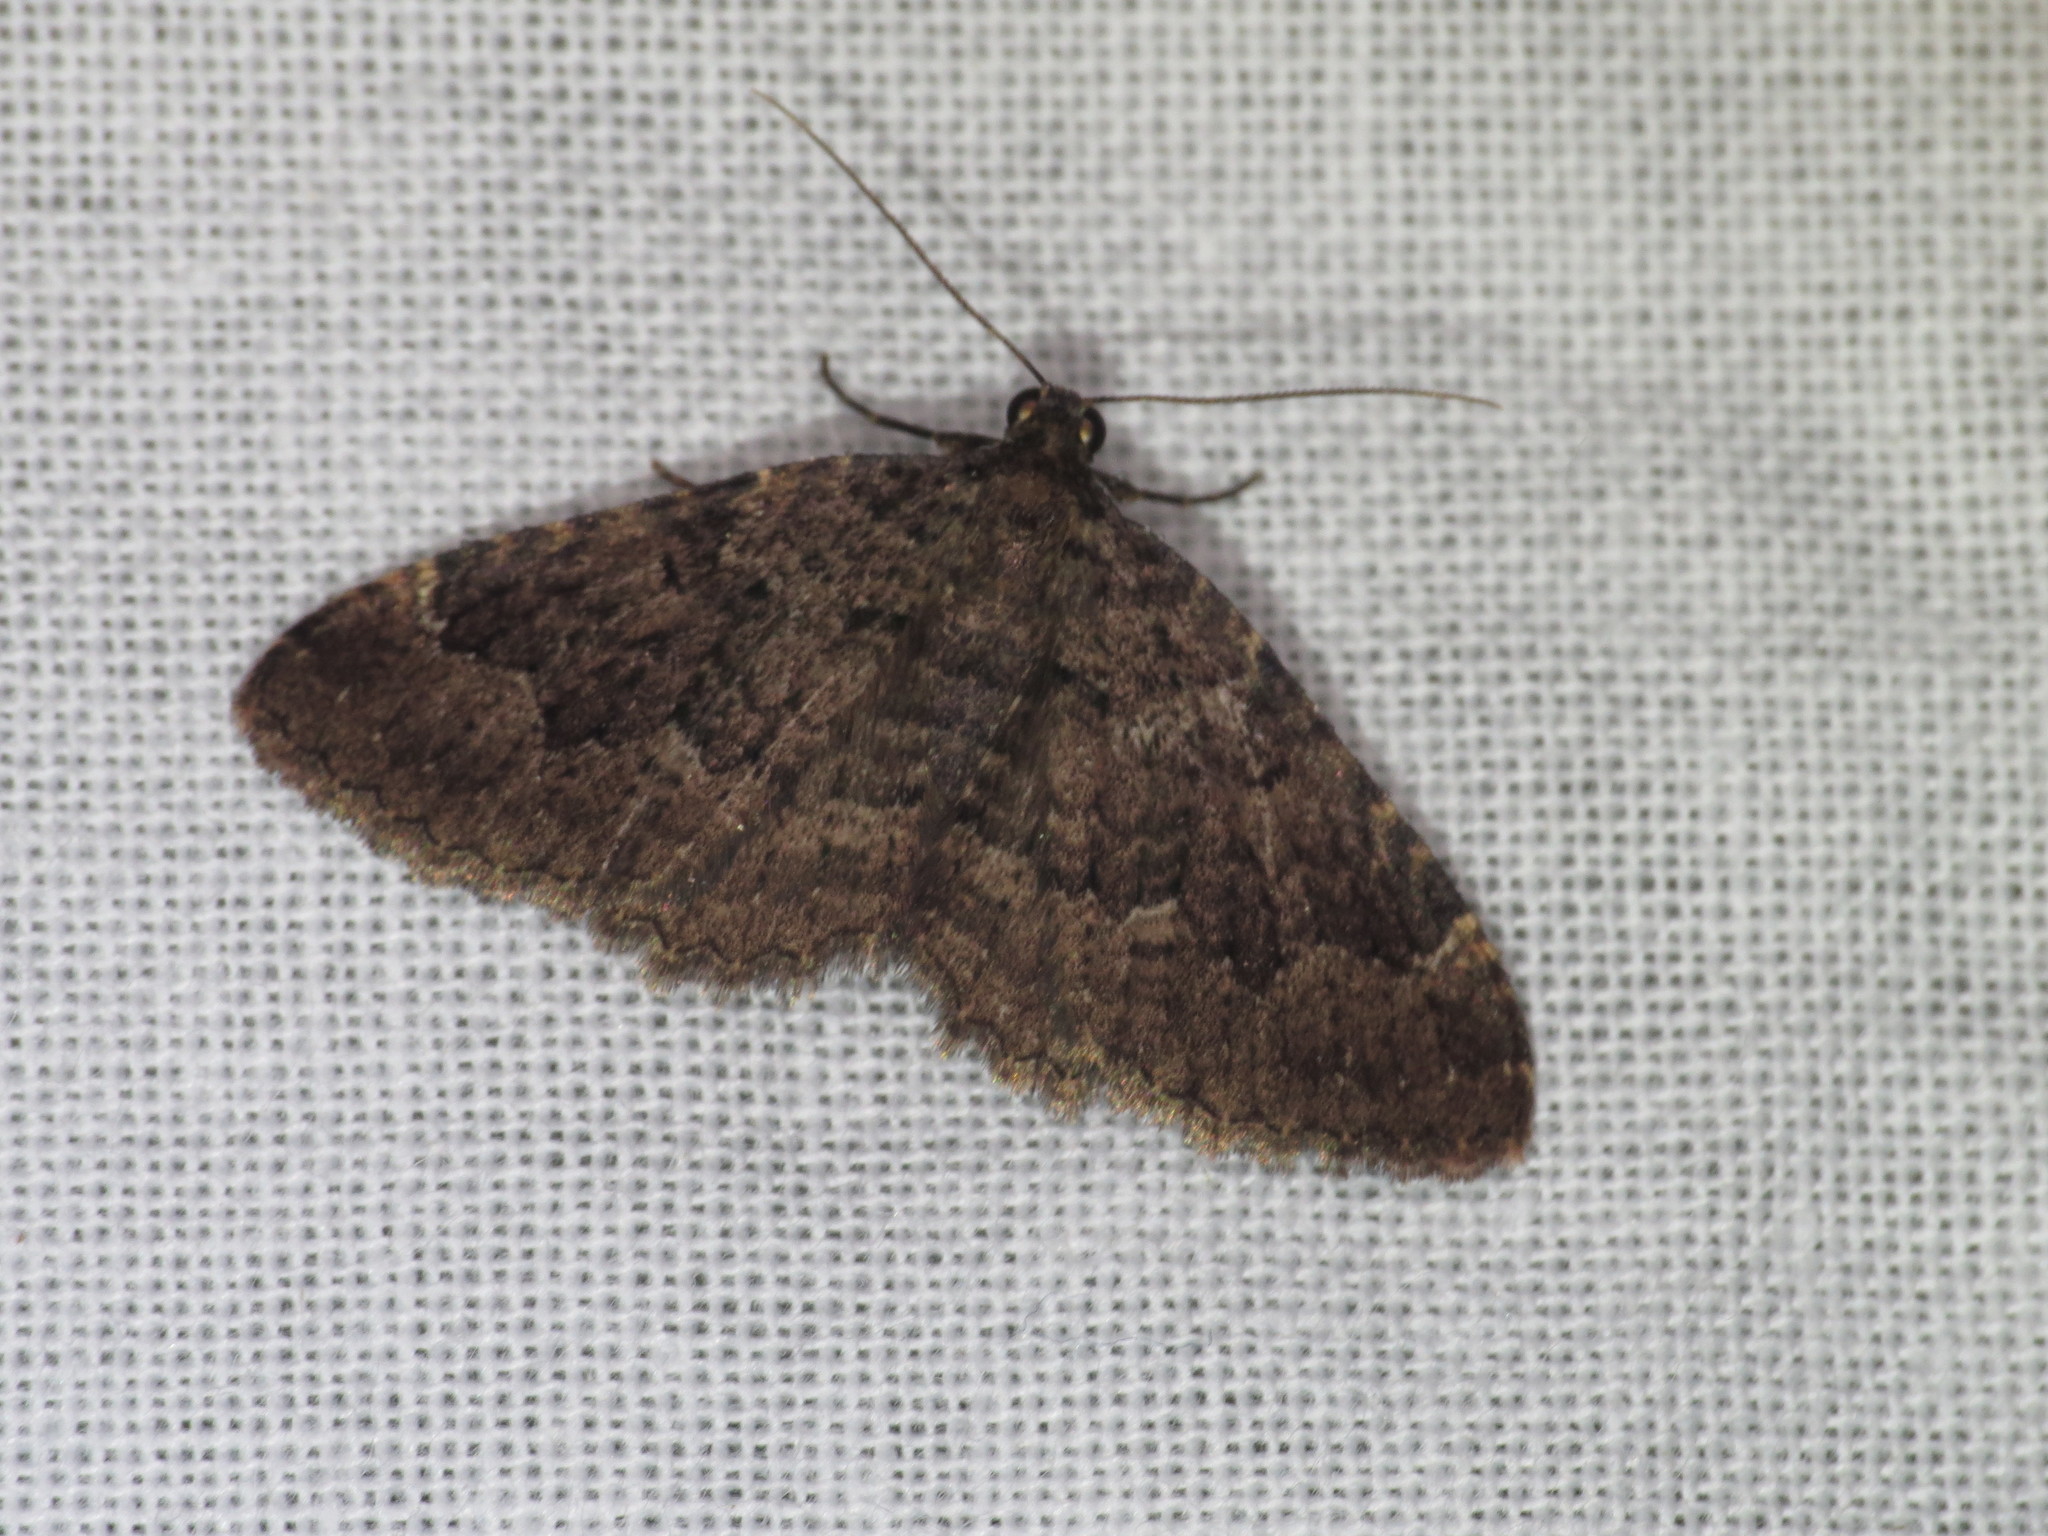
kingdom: Animalia
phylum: Arthropoda
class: Insecta
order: Lepidoptera
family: Geometridae
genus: Visiana
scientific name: Visiana brujata
